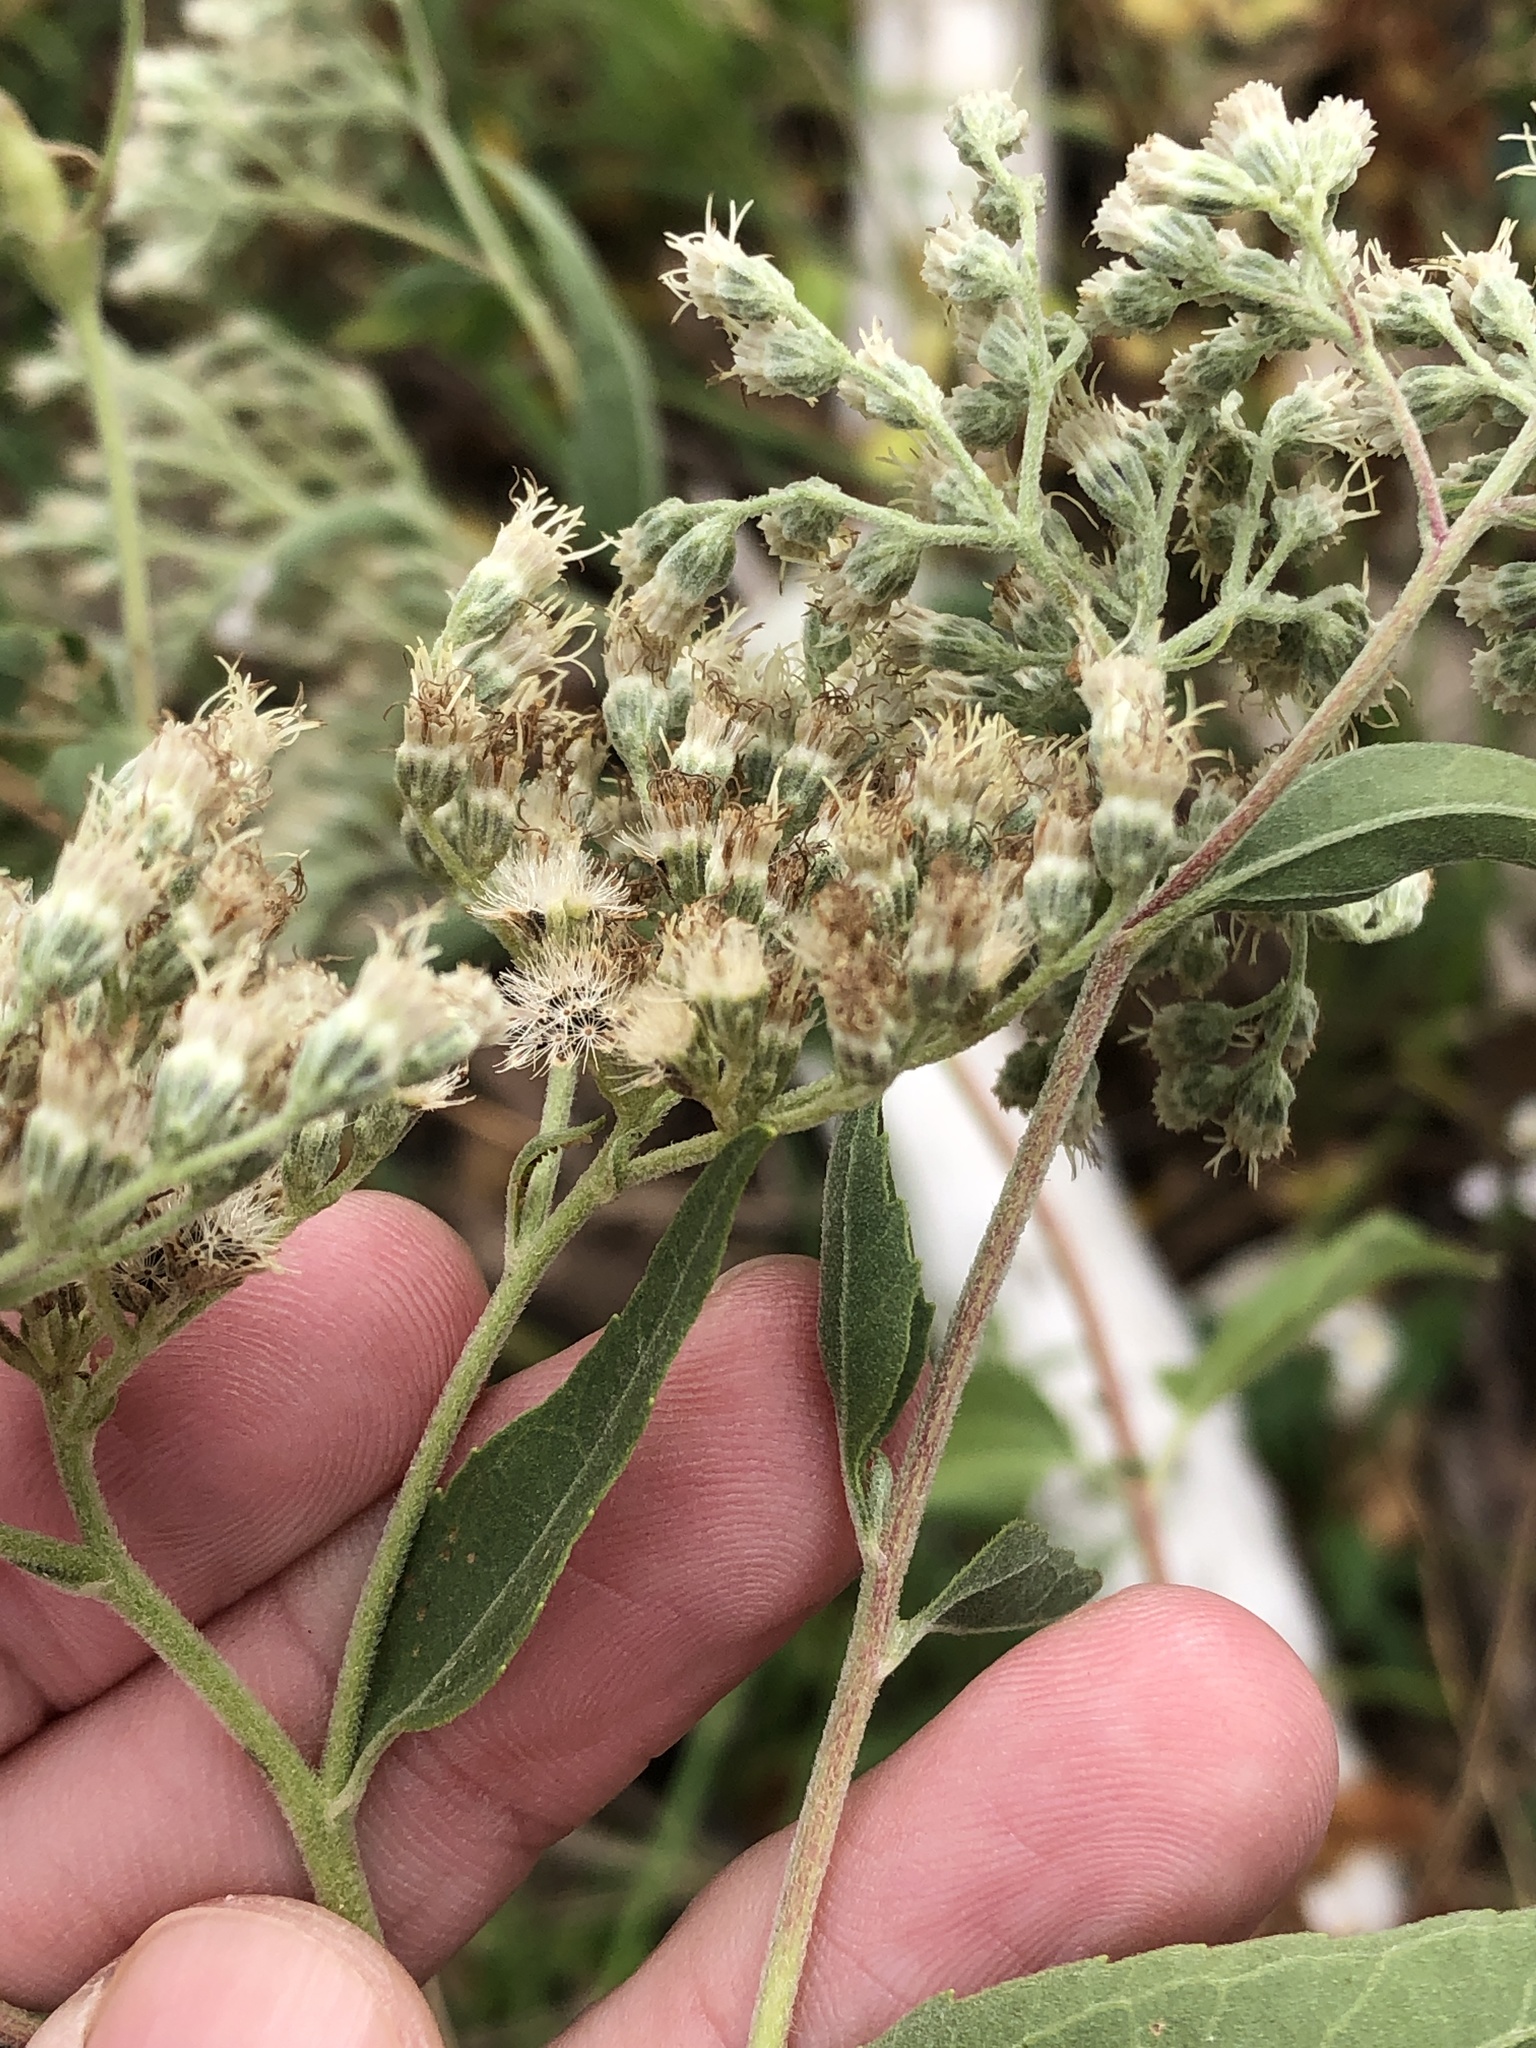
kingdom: Plantae
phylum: Tracheophyta
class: Magnoliopsida
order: Asterales
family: Asteraceae
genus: Eupatorium
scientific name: Eupatorium serotinum
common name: Late boneset
